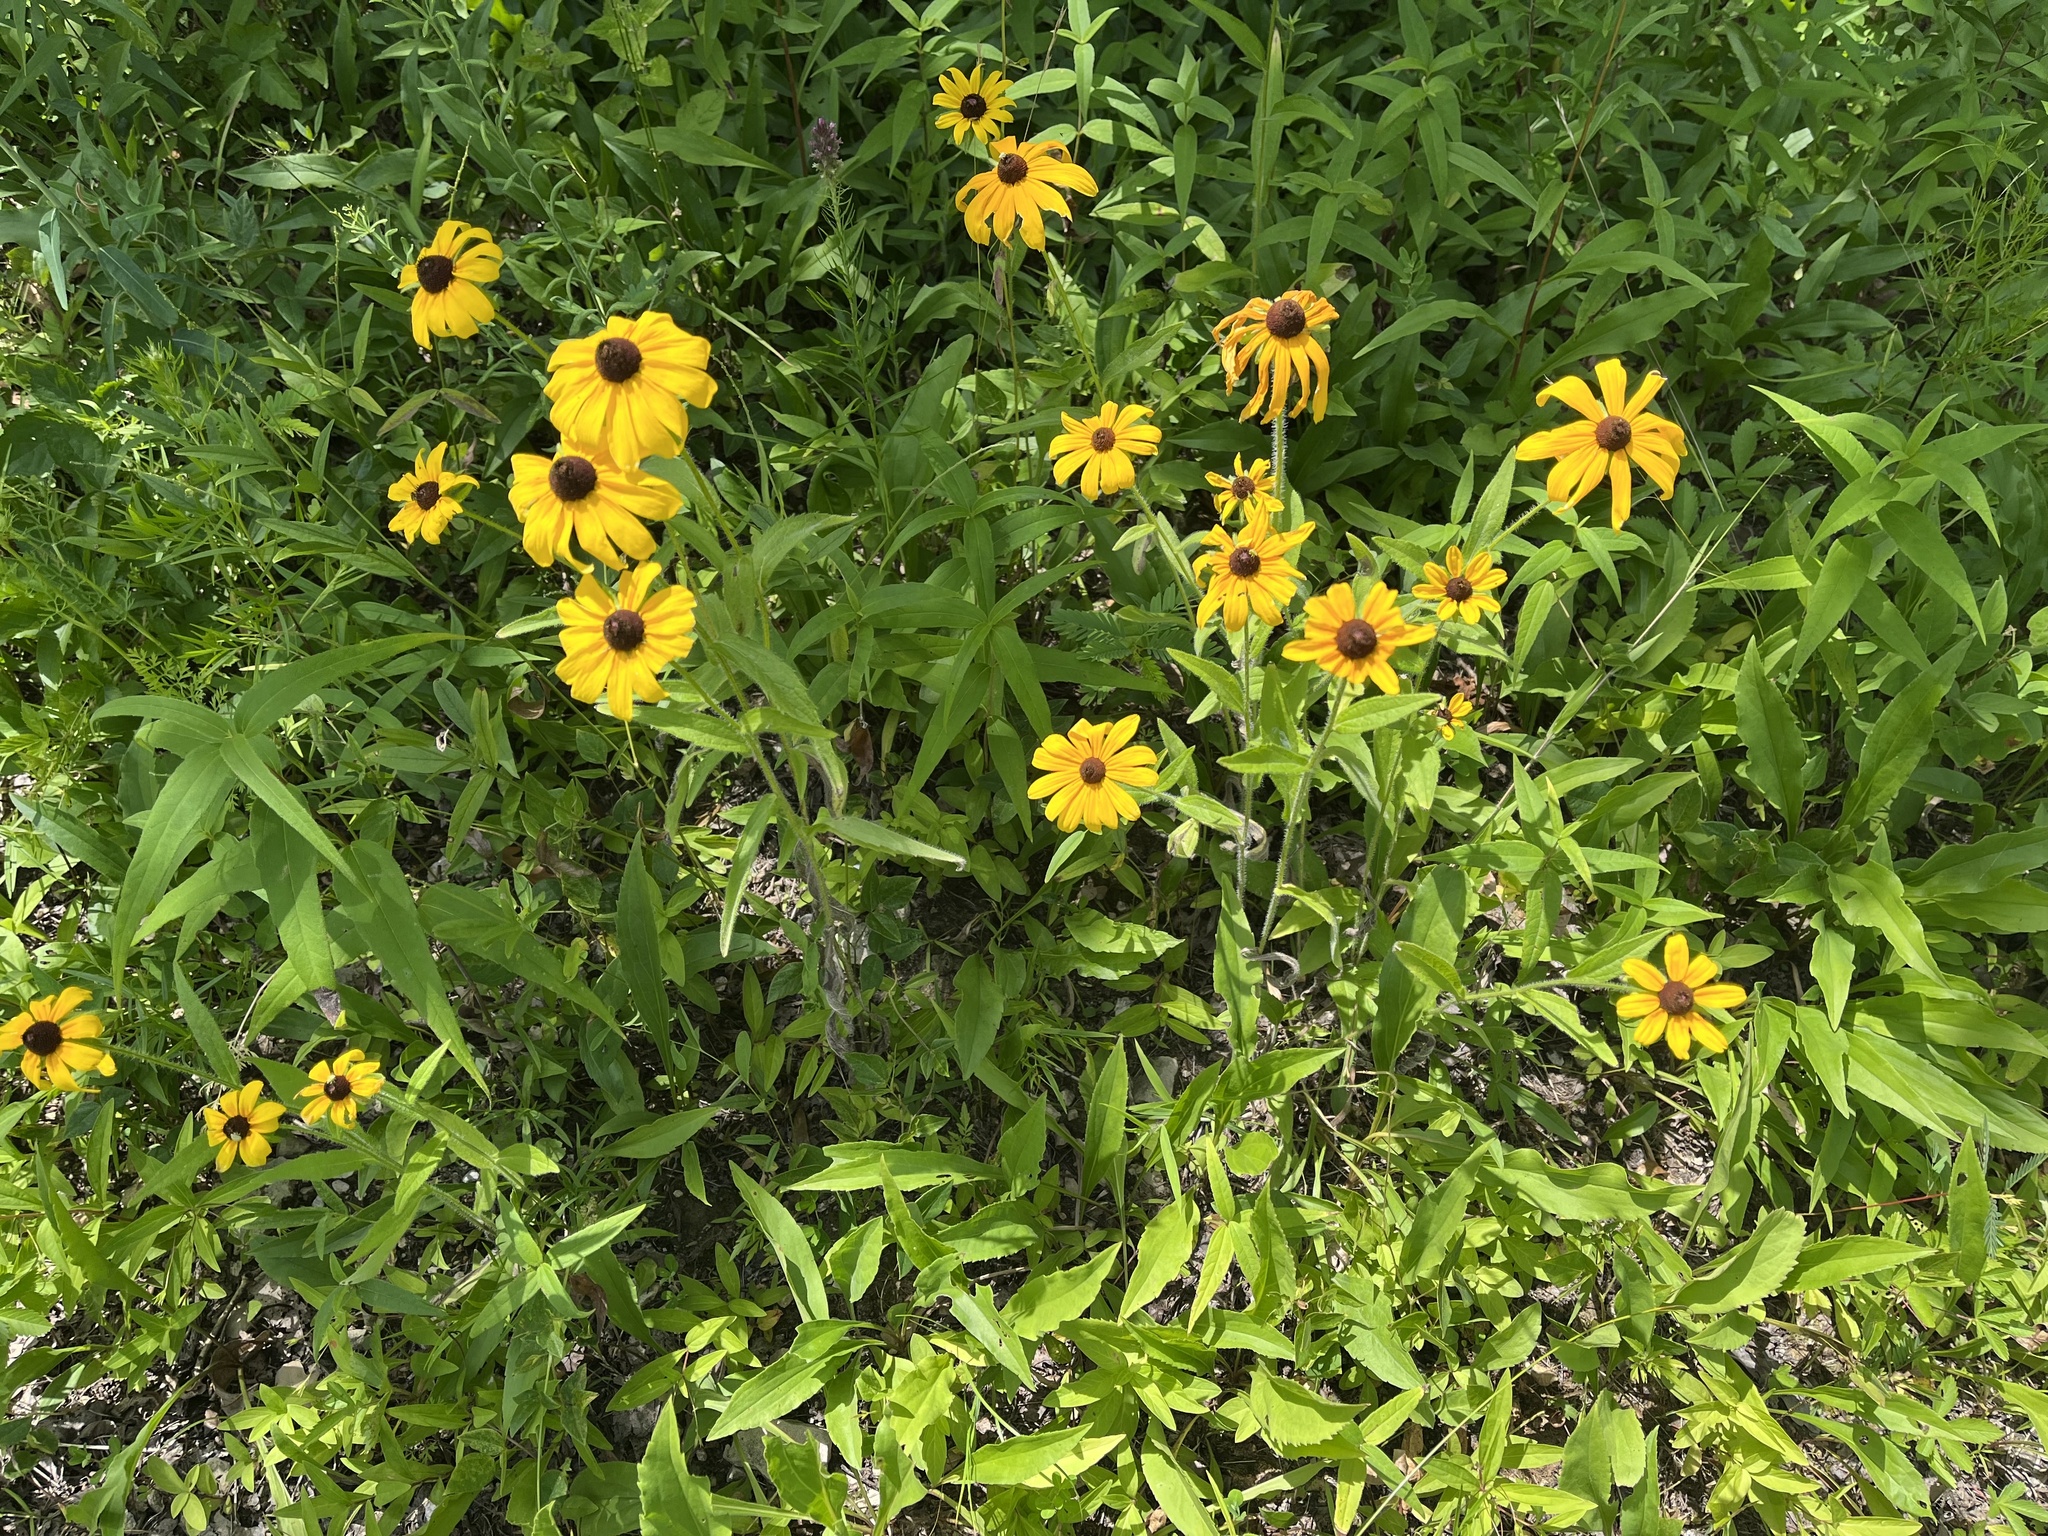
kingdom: Plantae
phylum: Tracheophyta
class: Magnoliopsida
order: Asterales
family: Asteraceae
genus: Rudbeckia
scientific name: Rudbeckia hirta
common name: Black-eyed-susan
